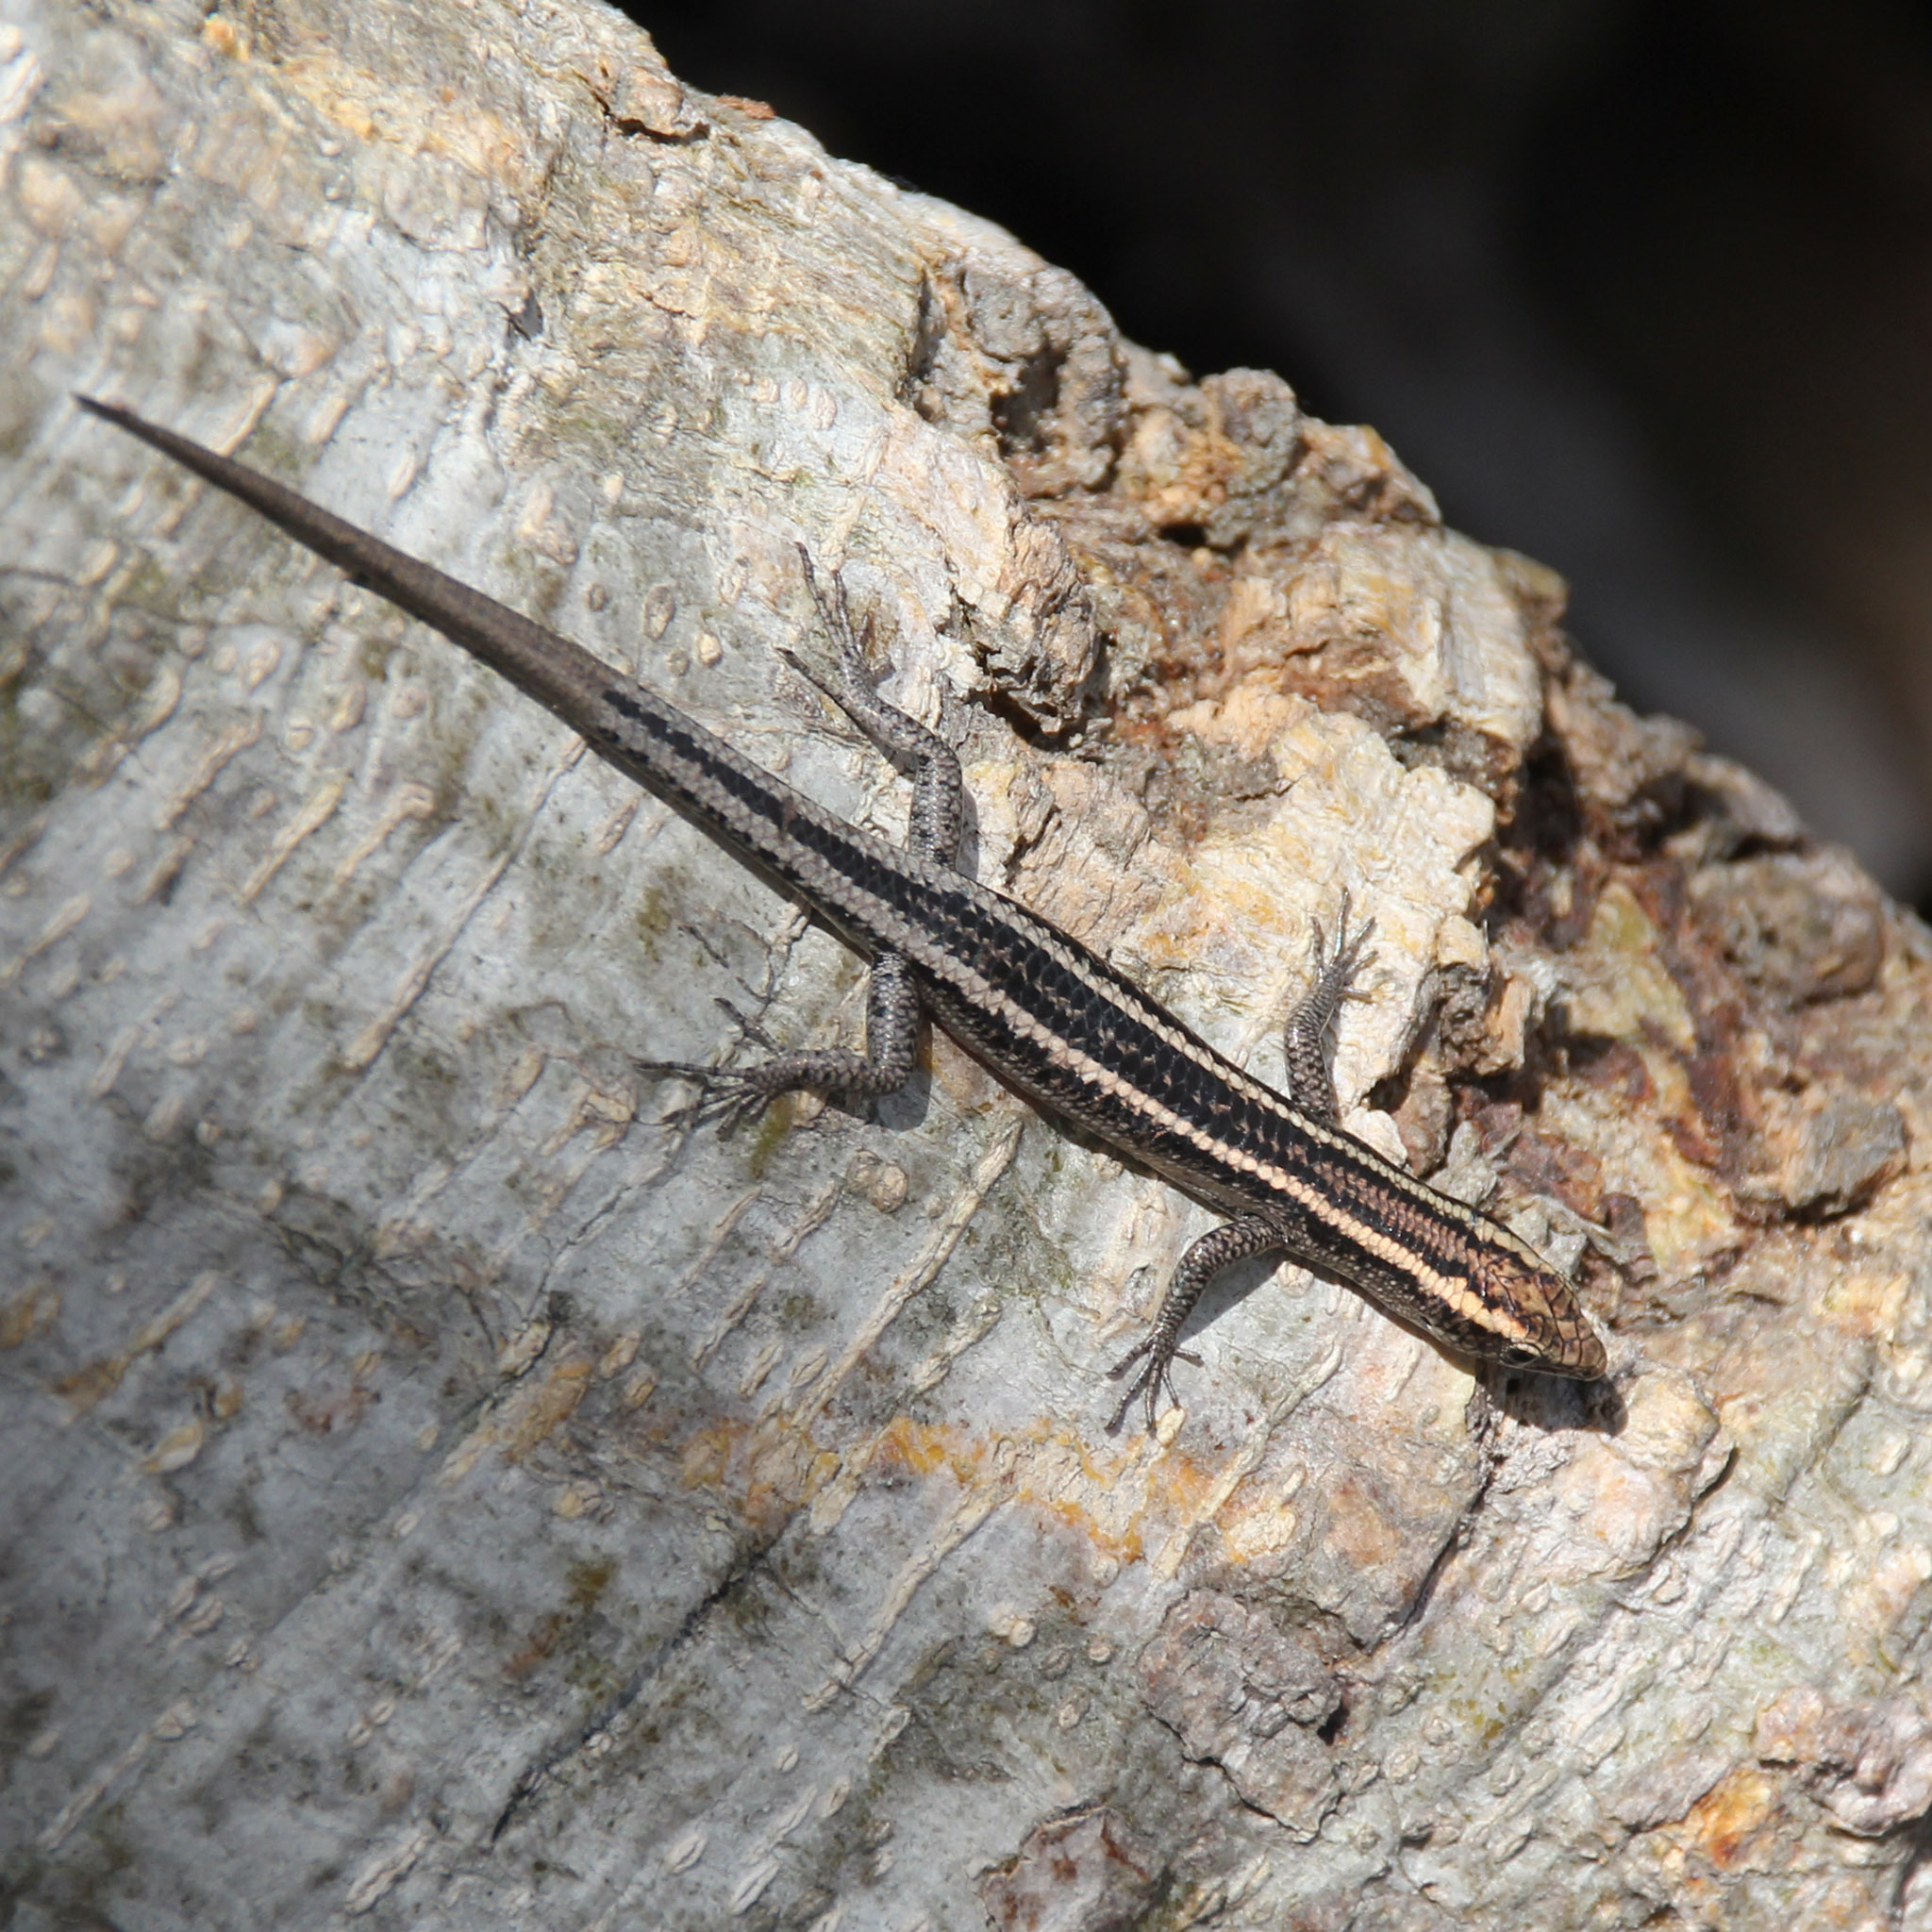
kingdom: Animalia
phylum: Chordata
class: Squamata
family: Scincidae
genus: Cryptoblepharus
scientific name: Cryptoblepharus pulcher
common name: Elegant snake-eyed skink
